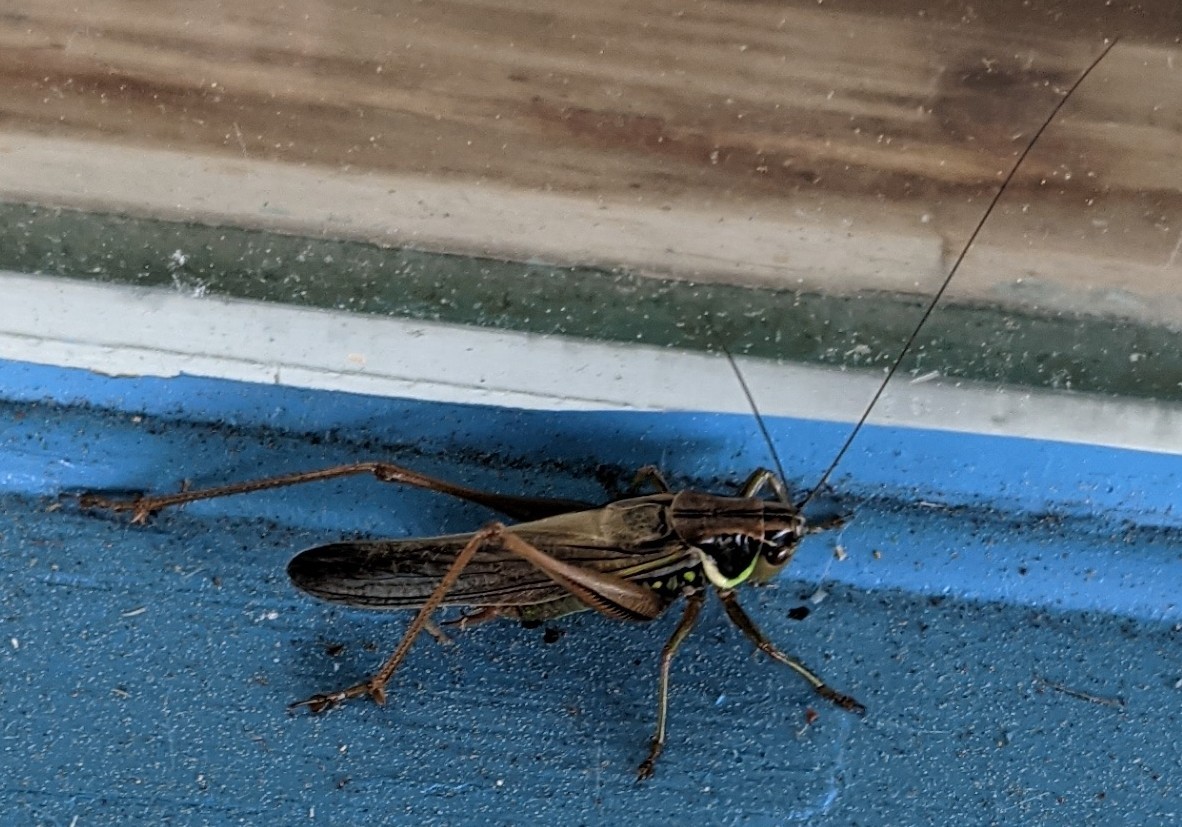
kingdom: Animalia
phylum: Arthropoda
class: Insecta
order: Orthoptera
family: Tettigoniidae
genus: Roeseliana
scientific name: Roeseliana roeselii
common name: Roesel's bush cricket
